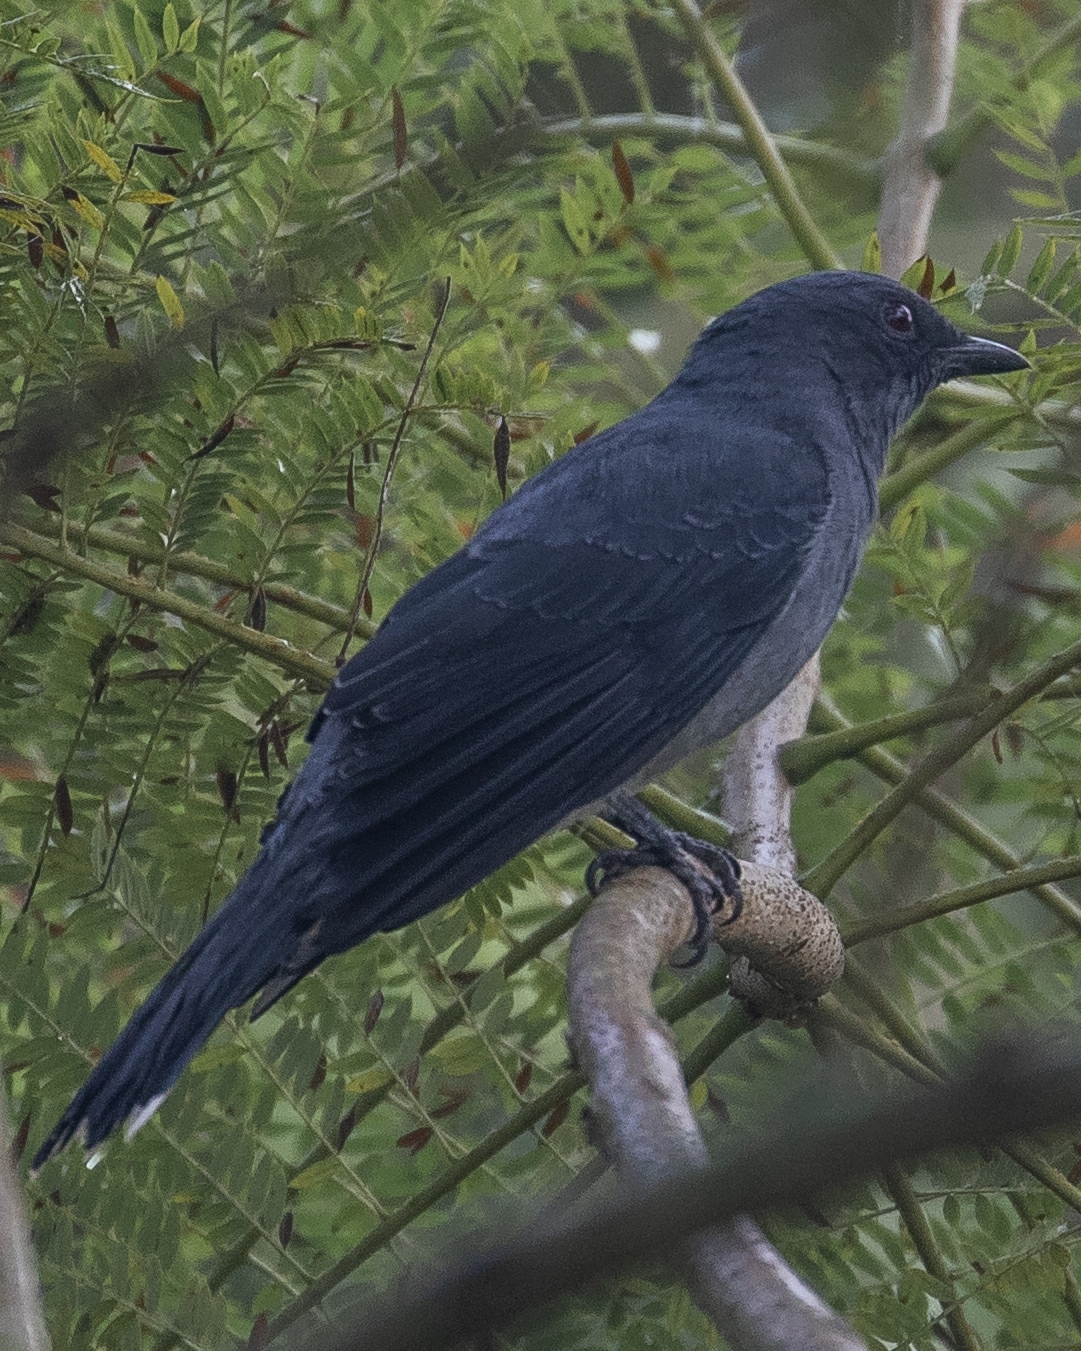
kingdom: Animalia
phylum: Chordata
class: Aves
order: Passeriformes
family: Campephagidae
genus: Coracina
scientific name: Coracina melaschistos
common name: Black-winged cuckooshrike
